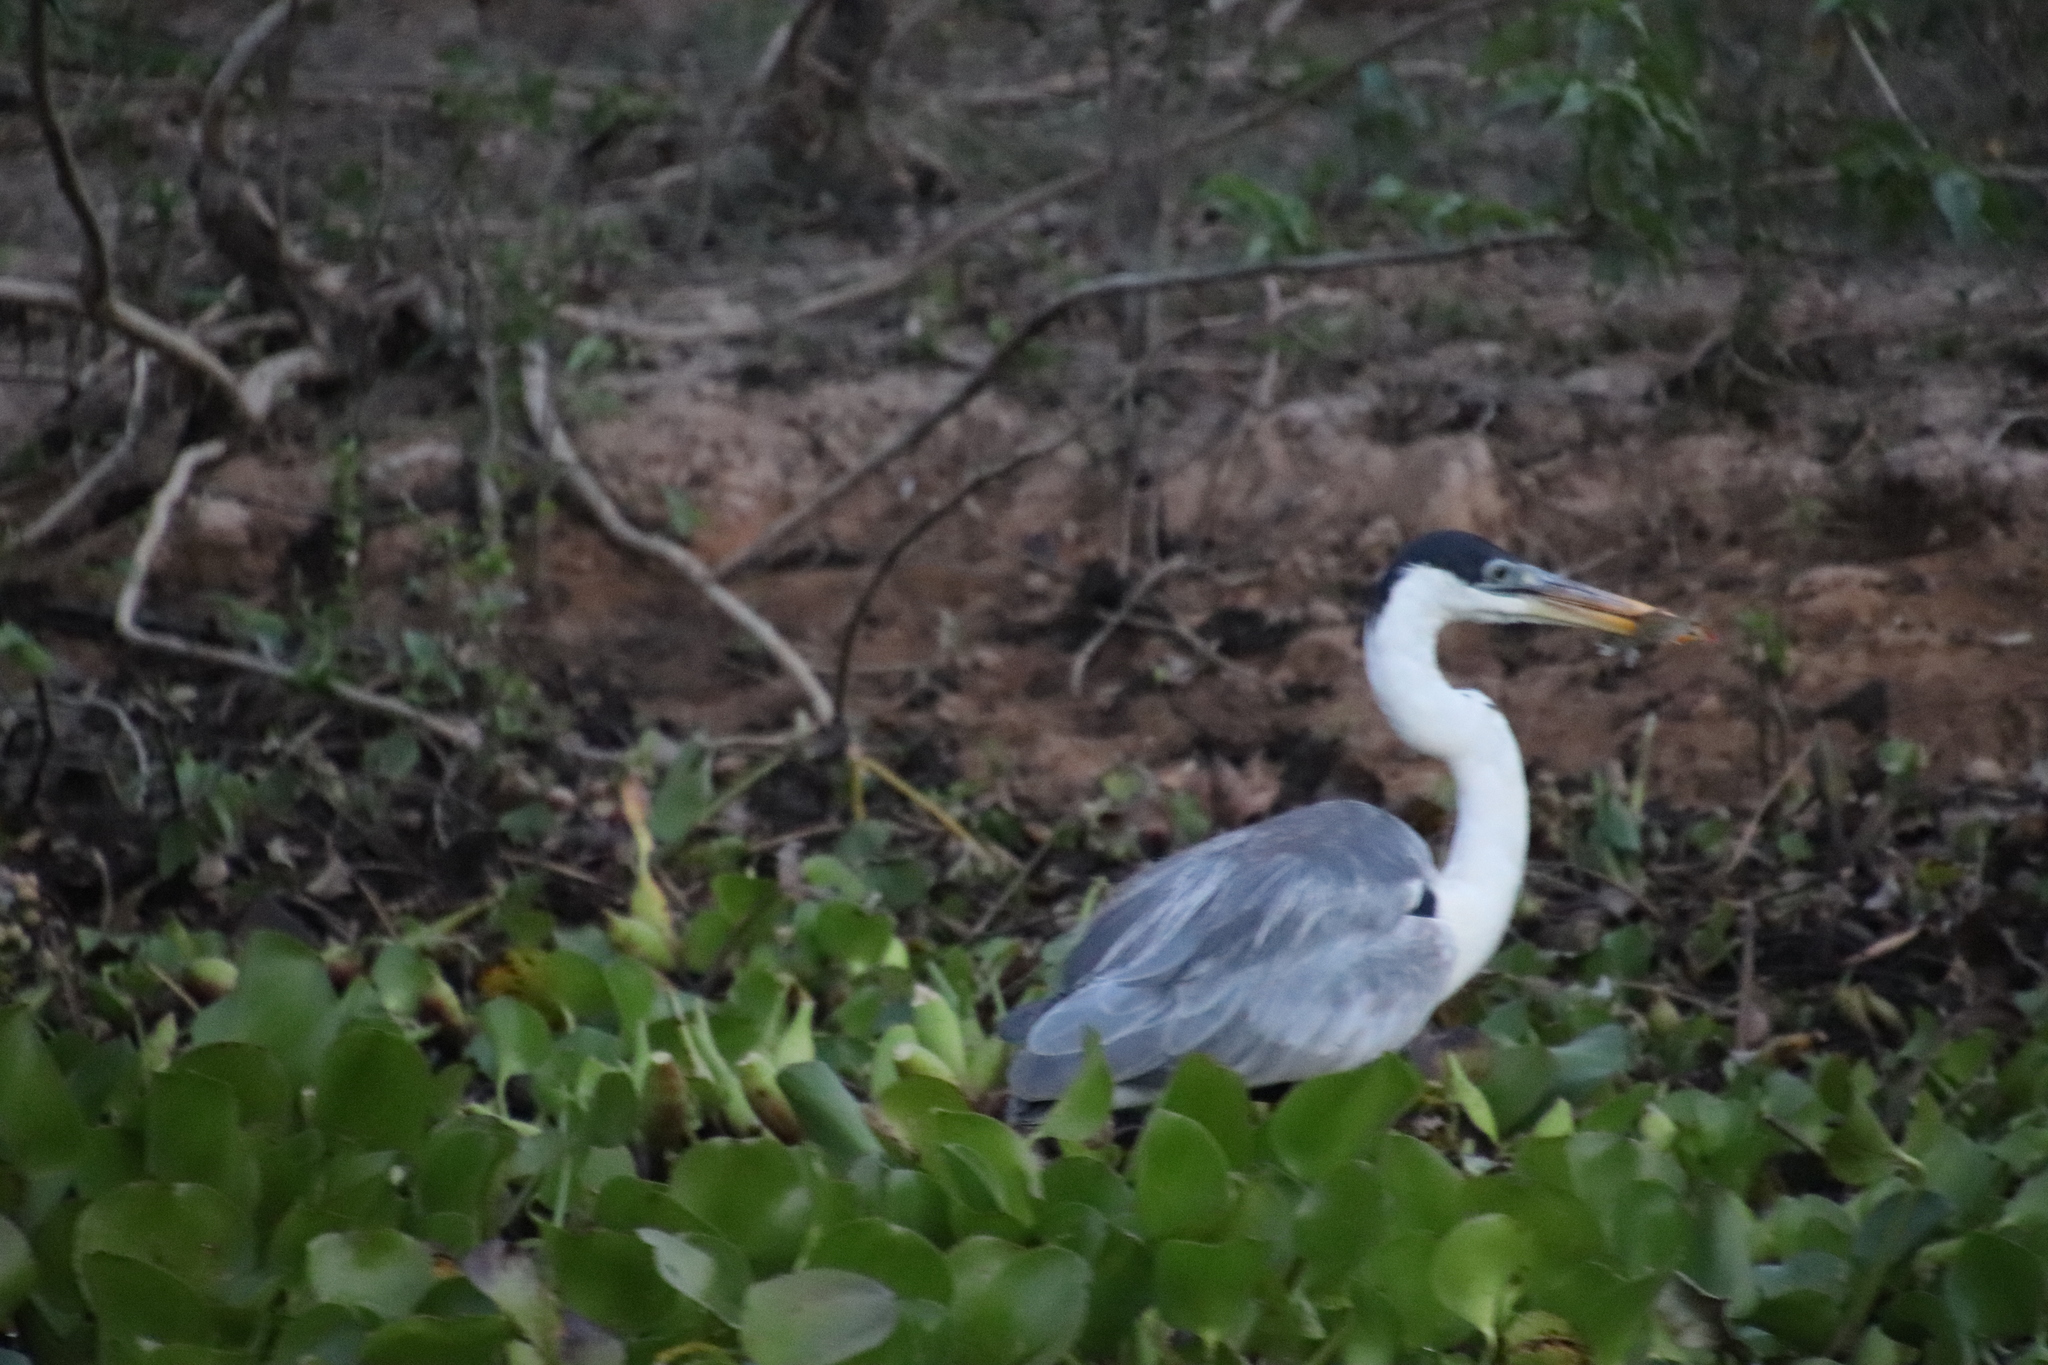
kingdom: Animalia
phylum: Chordata
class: Aves
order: Pelecaniformes
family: Ardeidae
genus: Ardea
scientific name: Ardea cocoi
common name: Cocoi heron
